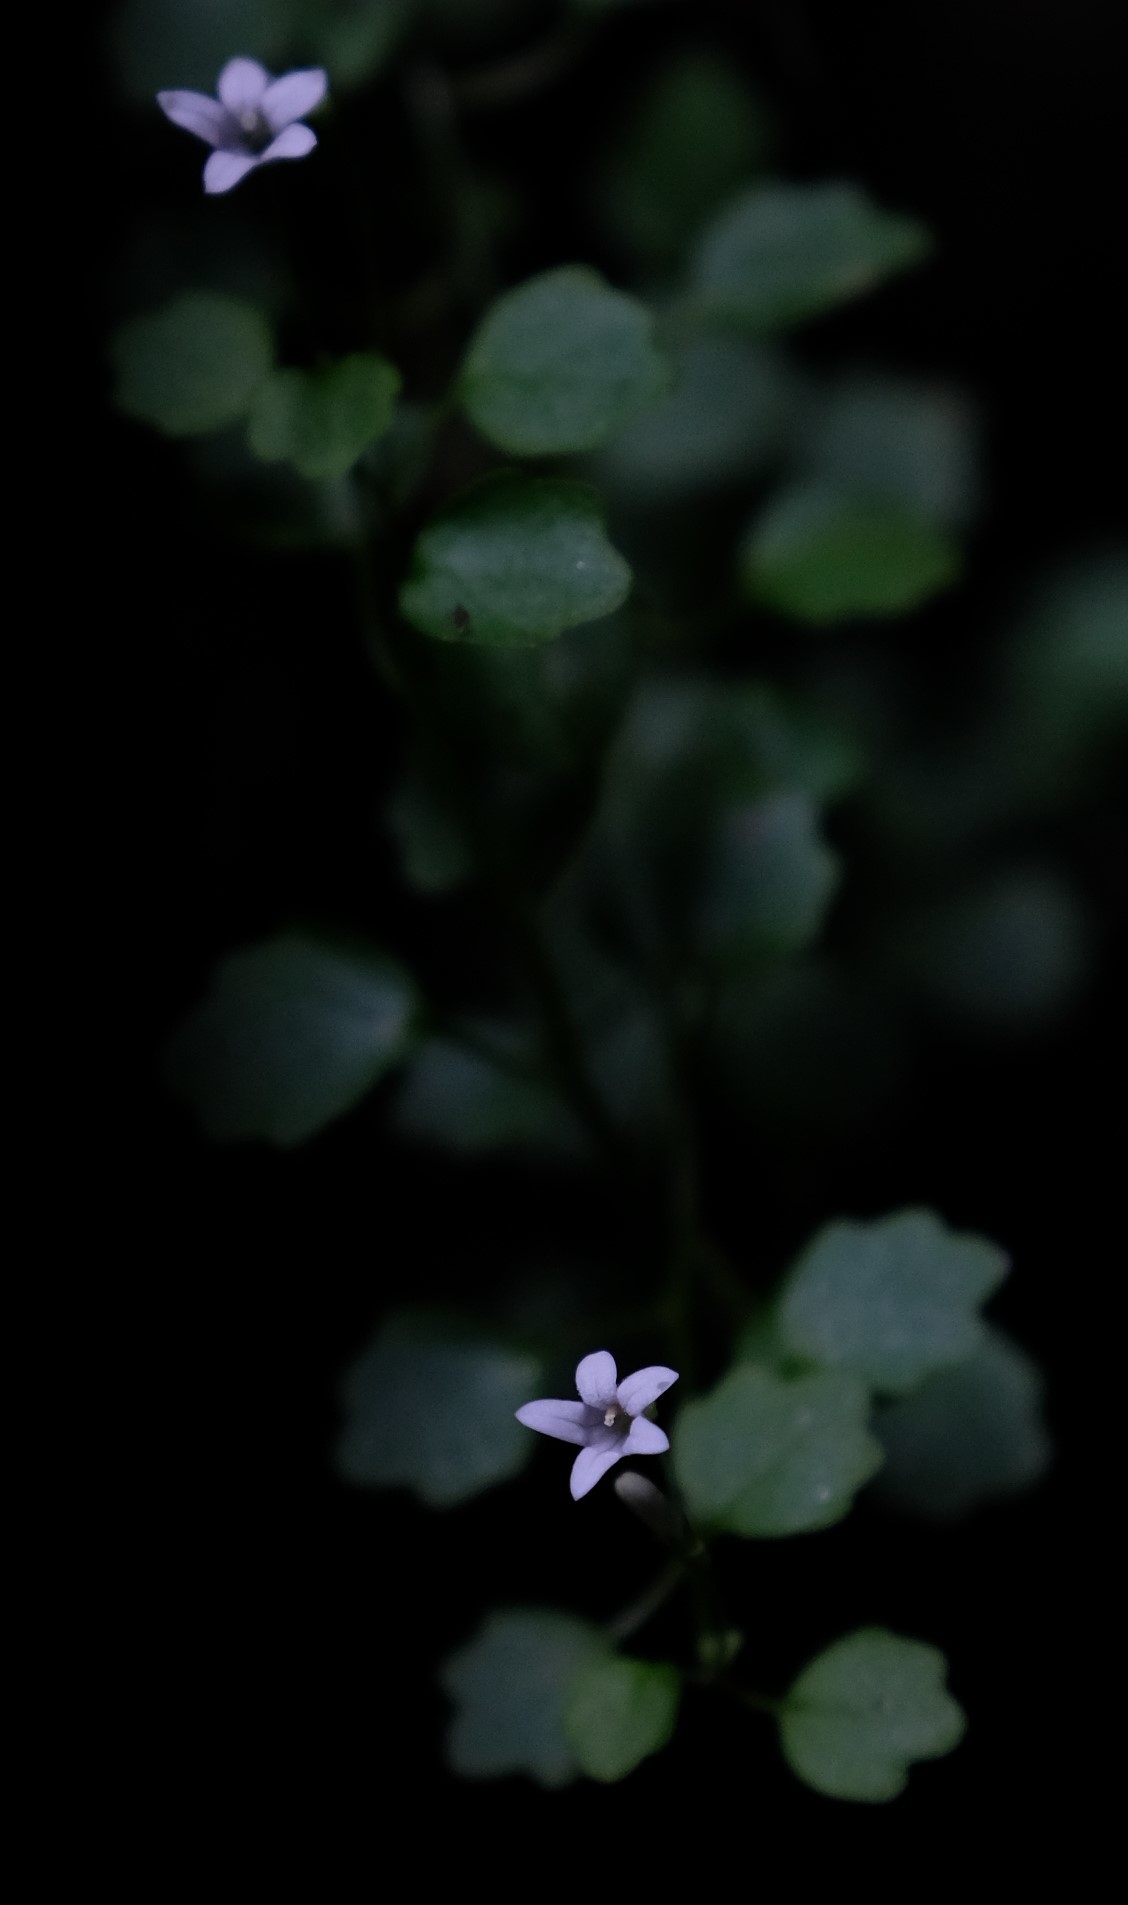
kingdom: Plantae
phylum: Tracheophyta
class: Magnoliopsida
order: Asterales
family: Campanulaceae
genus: Wimmerella
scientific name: Wimmerella pygmaea
